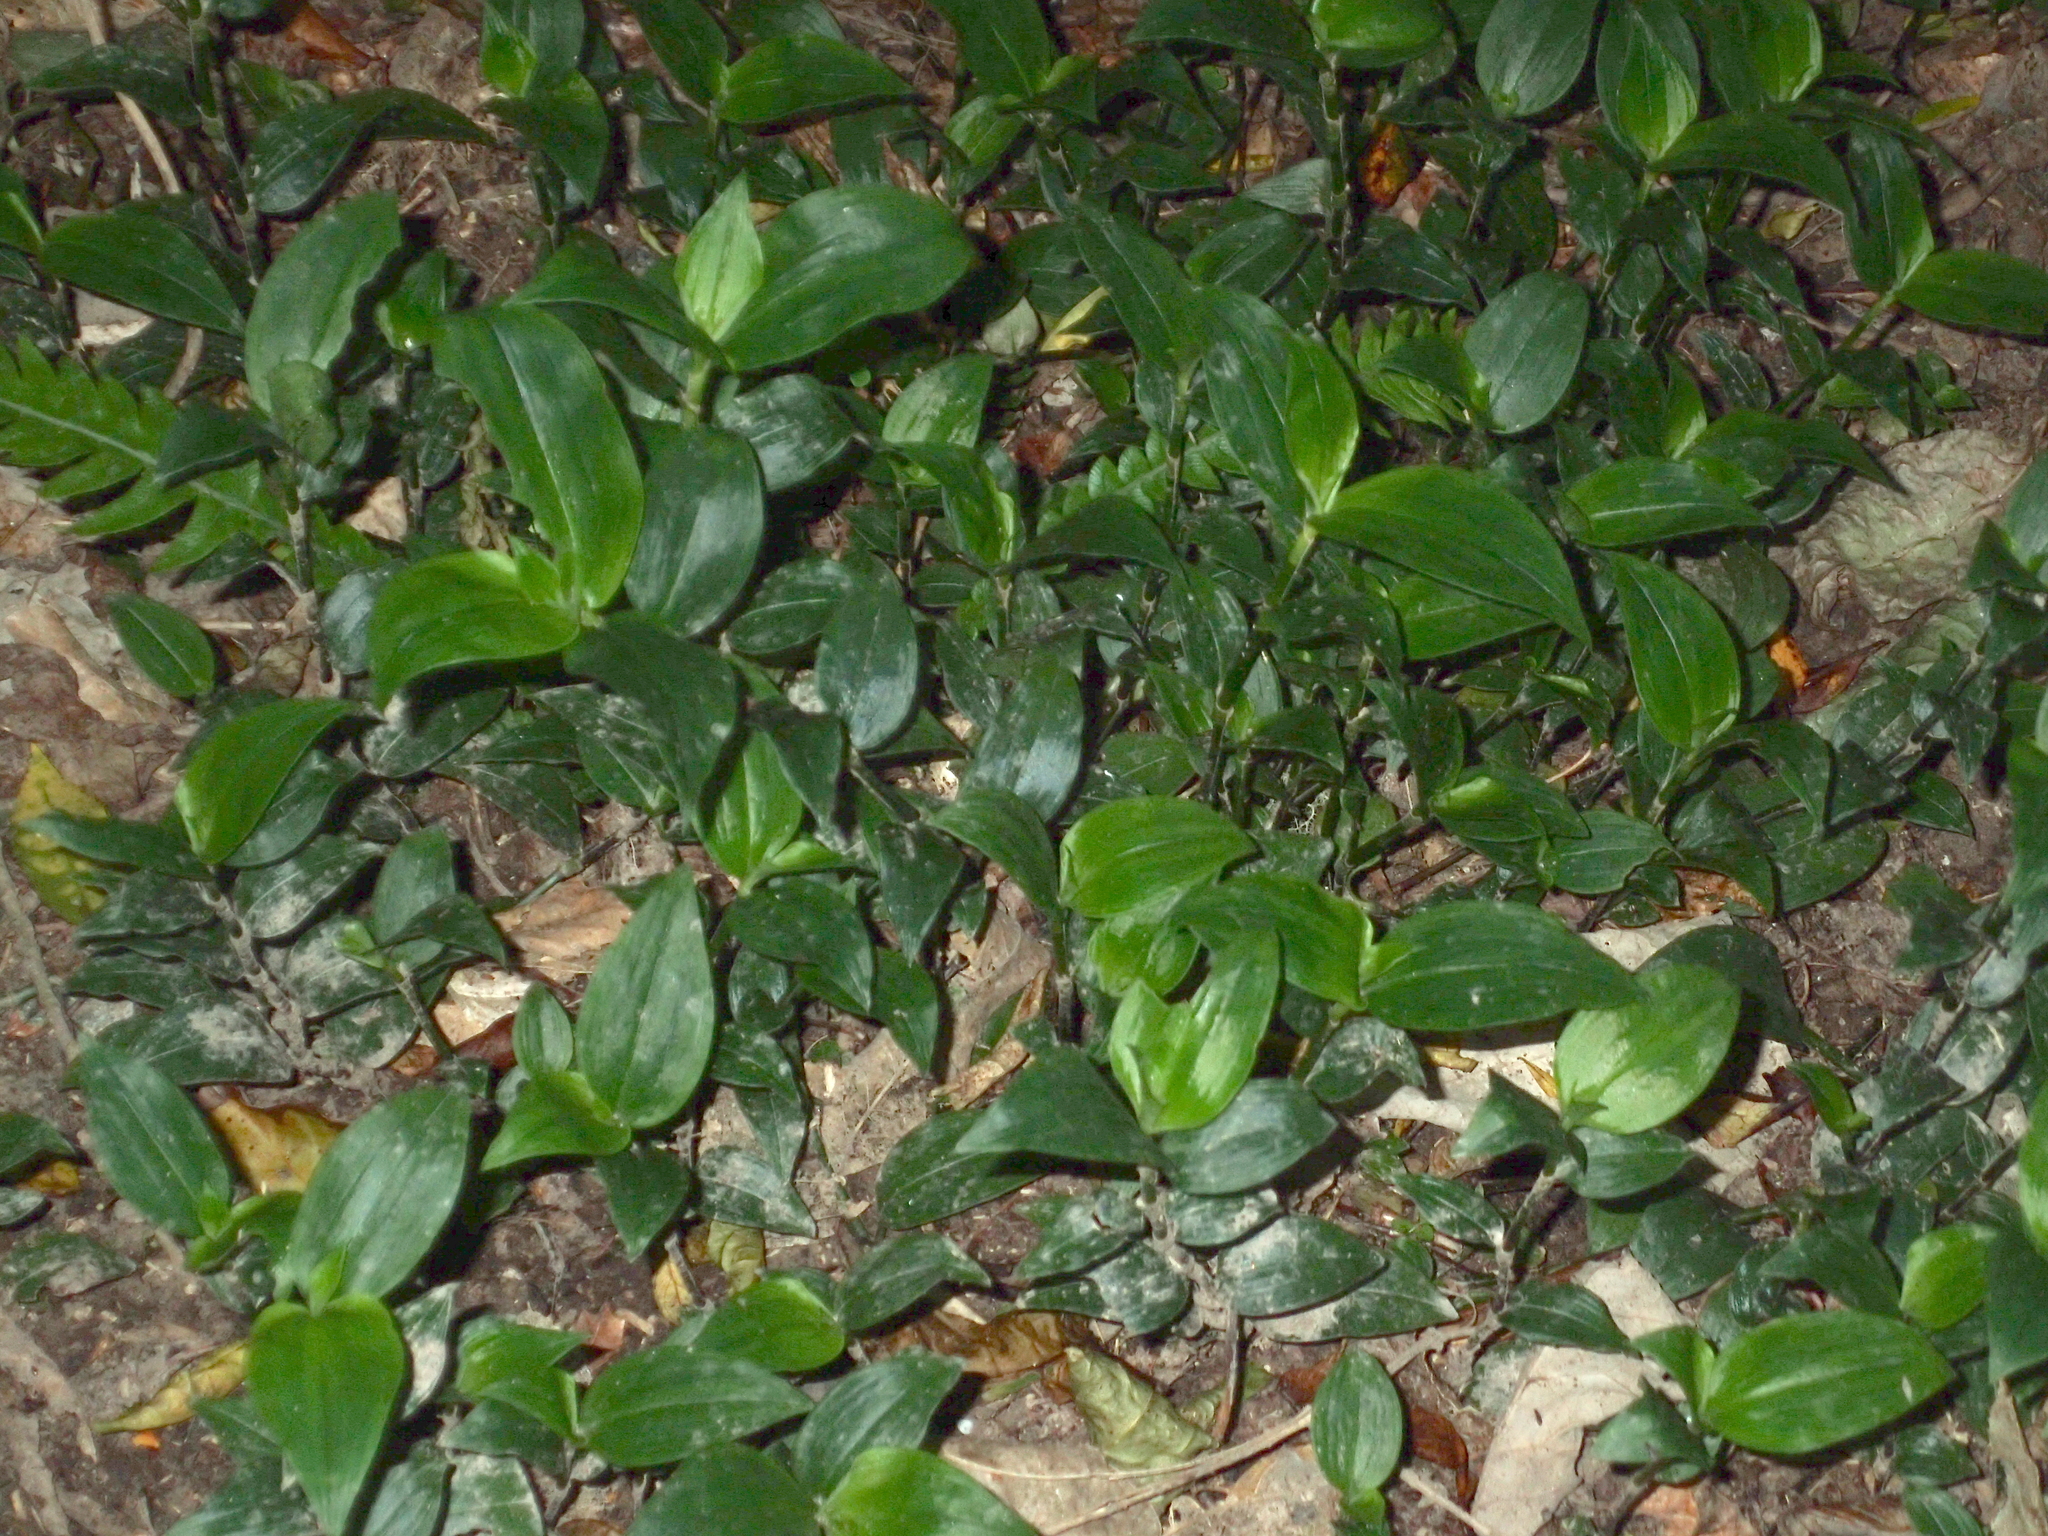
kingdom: Plantae
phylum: Tracheophyta
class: Liliopsida
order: Commelinales
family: Commelinaceae
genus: Tradescantia
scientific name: Tradescantia fluminensis
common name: Wandering-jew
